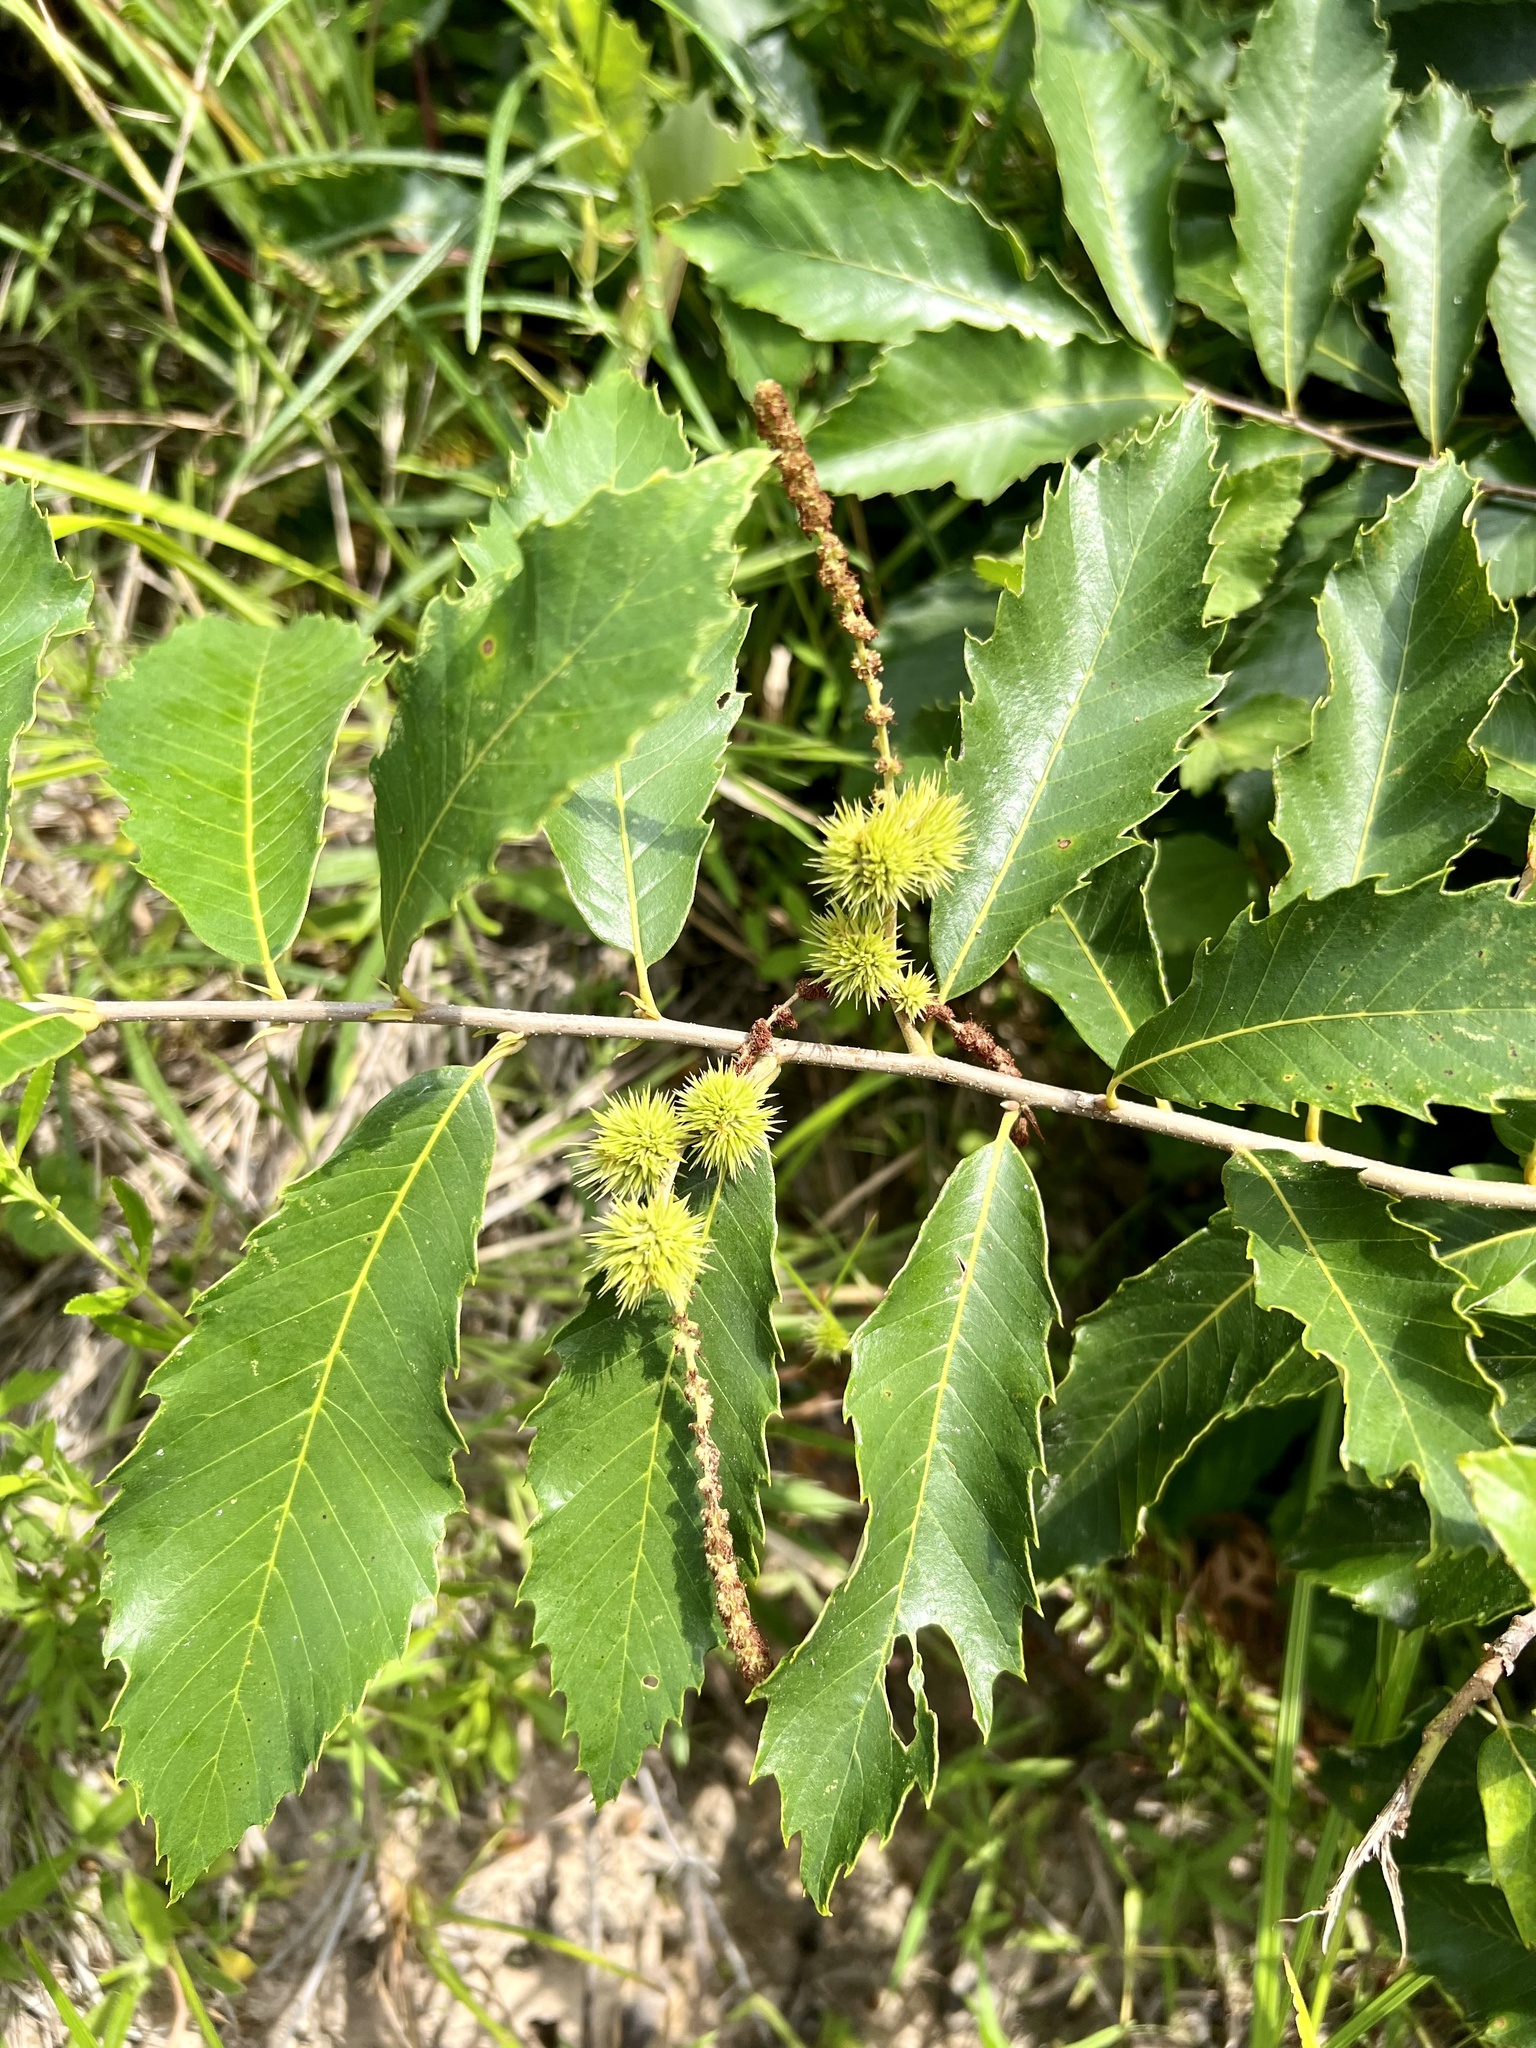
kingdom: Plantae
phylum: Tracheophyta
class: Magnoliopsida
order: Fagales
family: Fagaceae
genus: Castanea
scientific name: Castanea pumila
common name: Chinkapin
